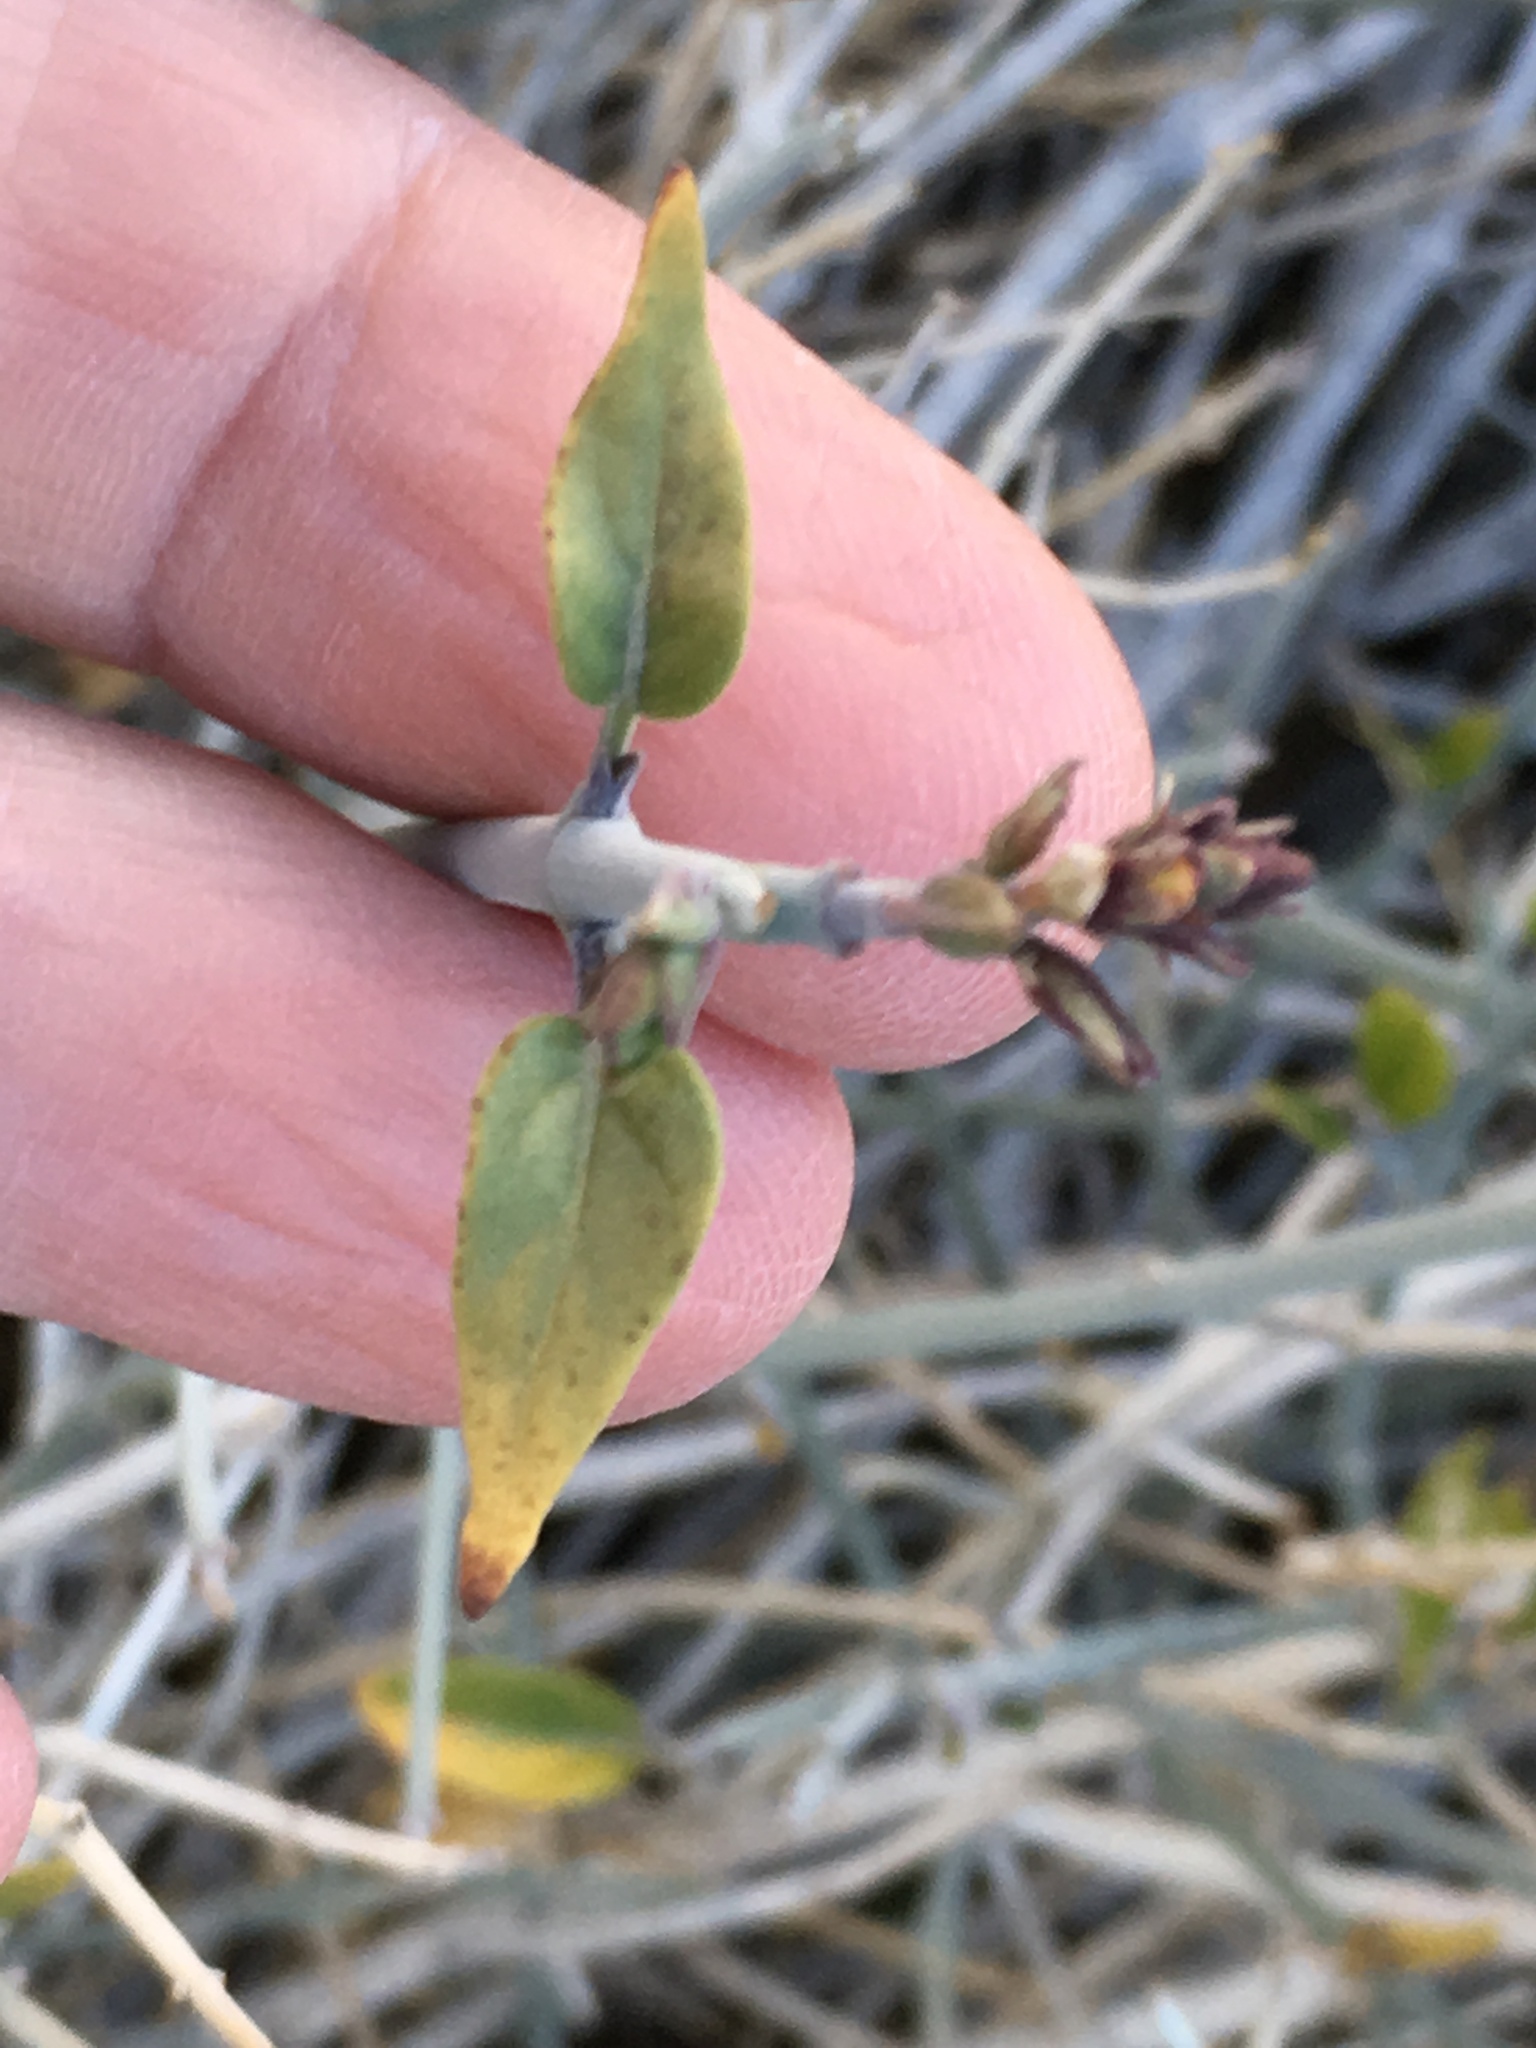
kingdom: Plantae
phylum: Tracheophyta
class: Magnoliopsida
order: Lamiales
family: Acanthaceae
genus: Justicia
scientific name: Justicia californica
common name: Chuparosa-honeysuckle
